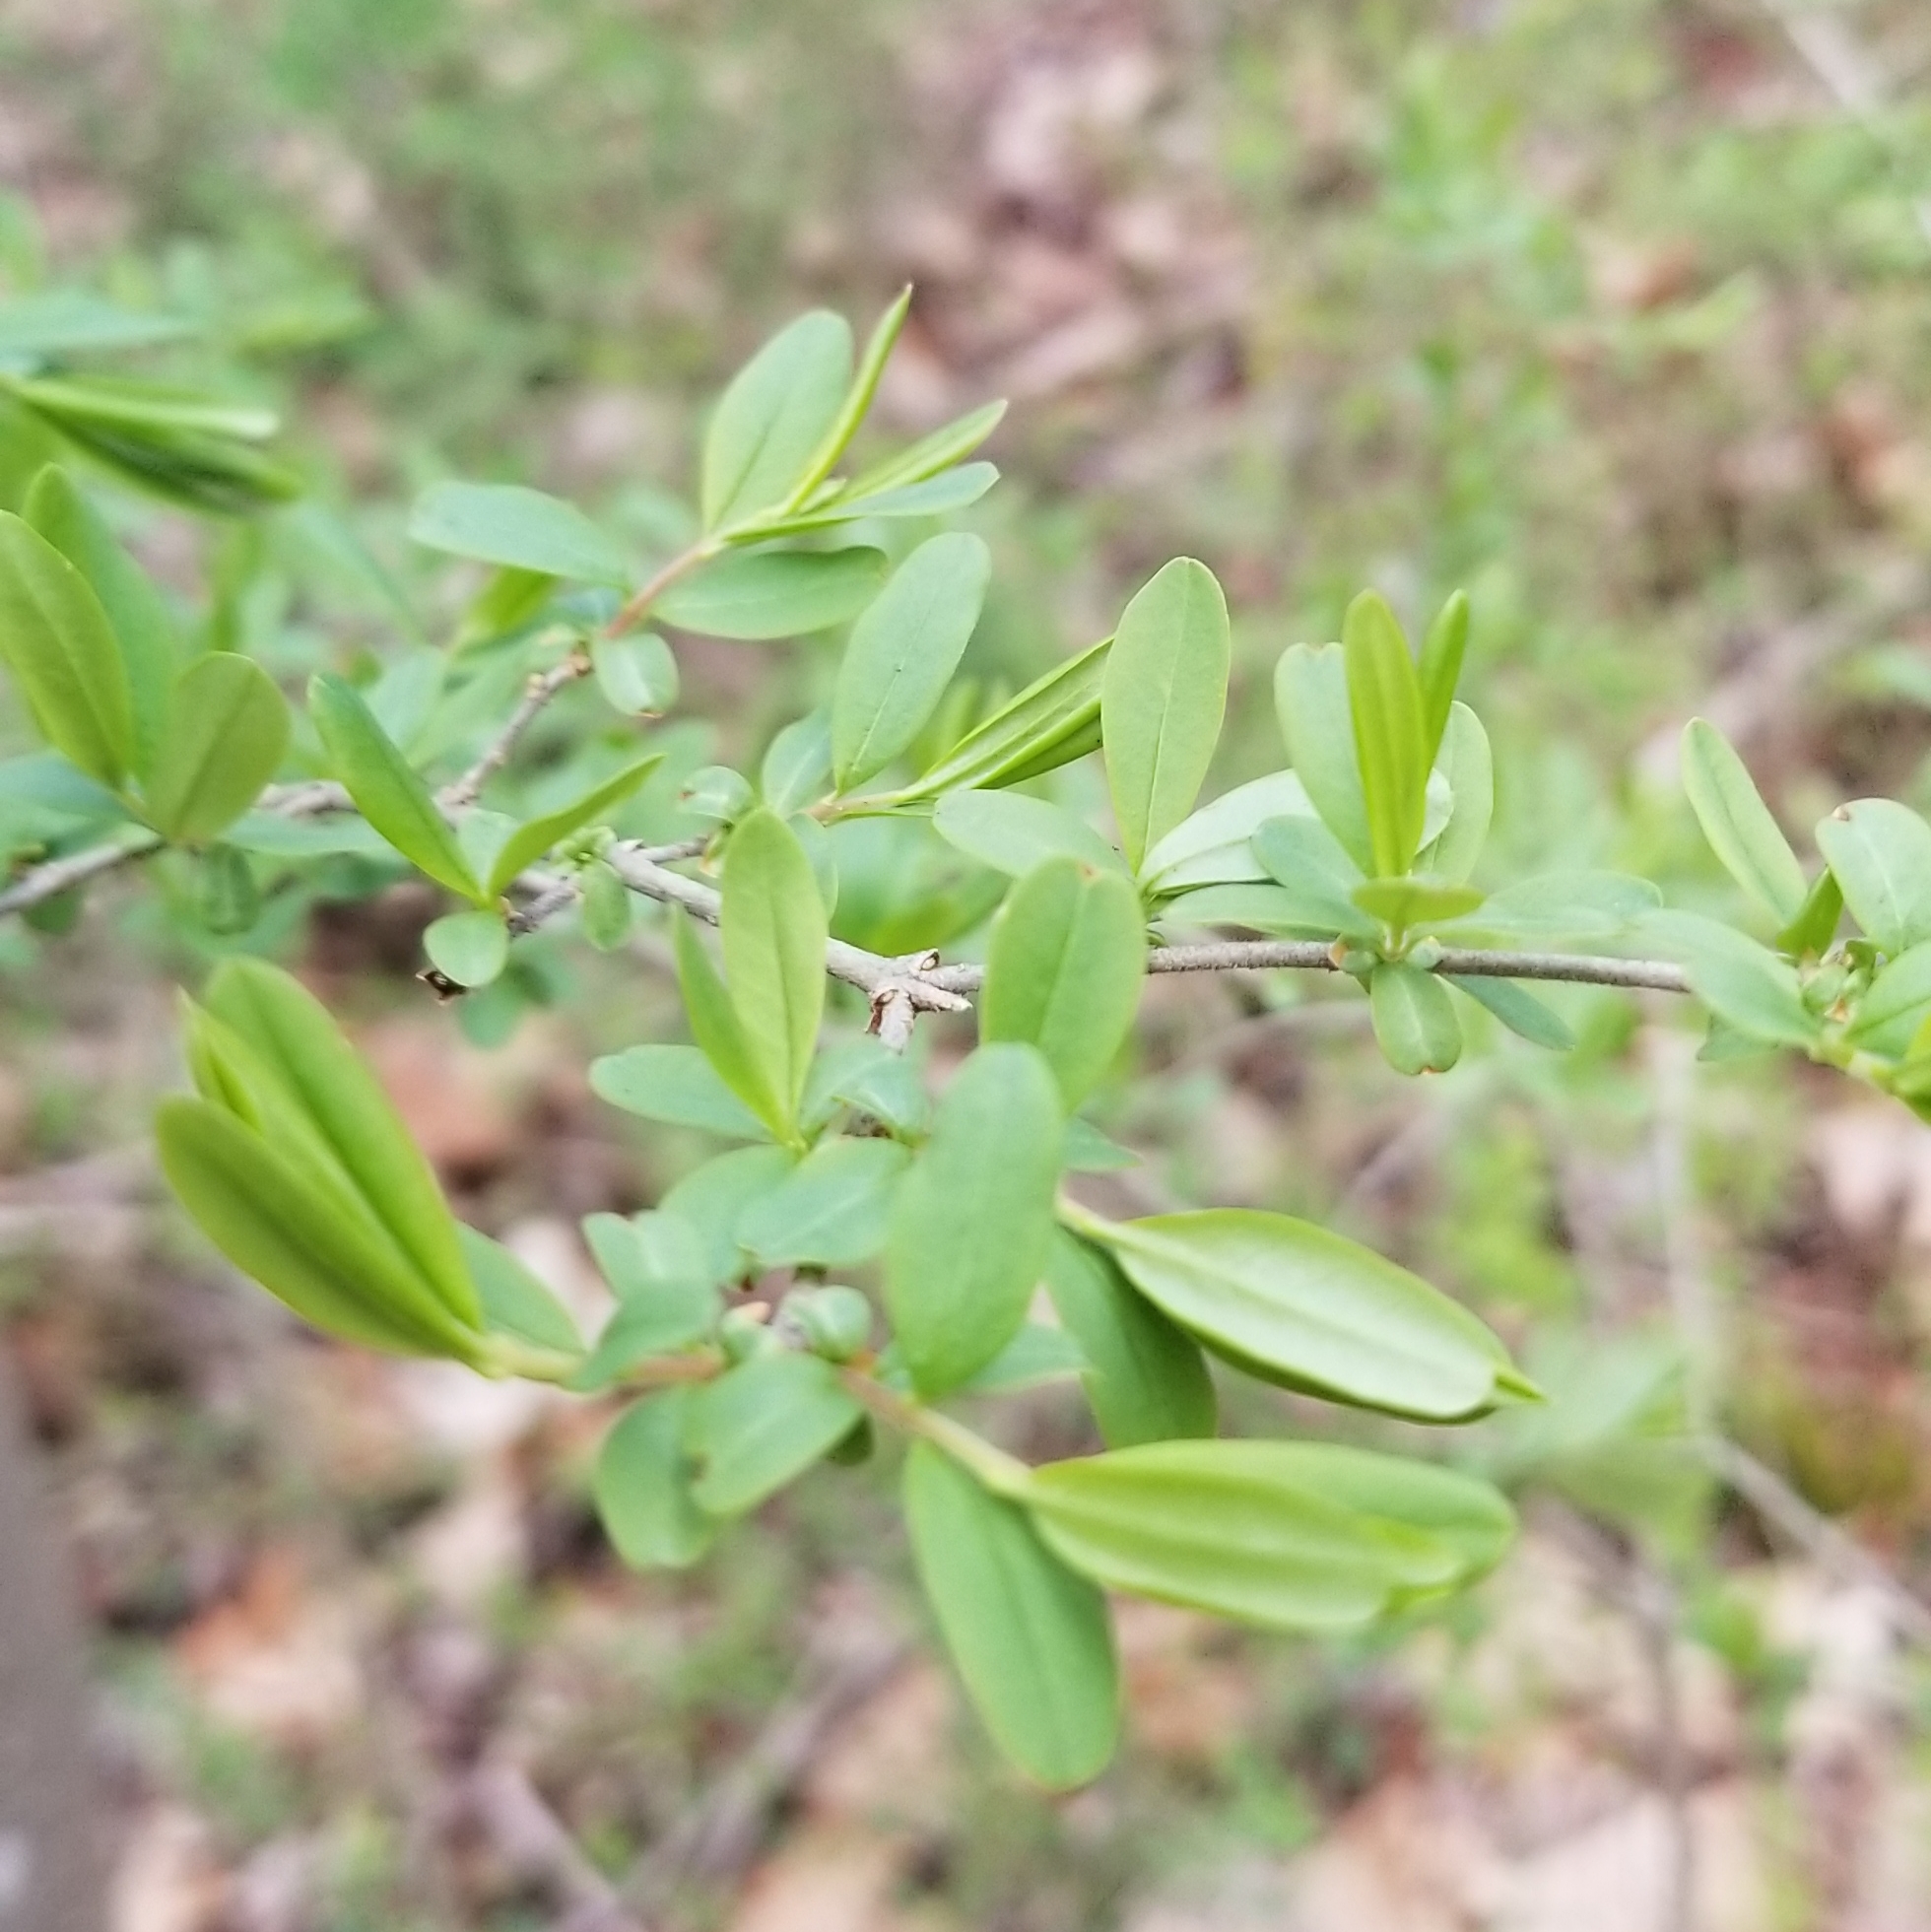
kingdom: Plantae
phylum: Tracheophyta
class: Magnoliopsida
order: Lamiales
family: Oleaceae
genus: Ligustrum
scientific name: Ligustrum obtusifolium
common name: Border privet
